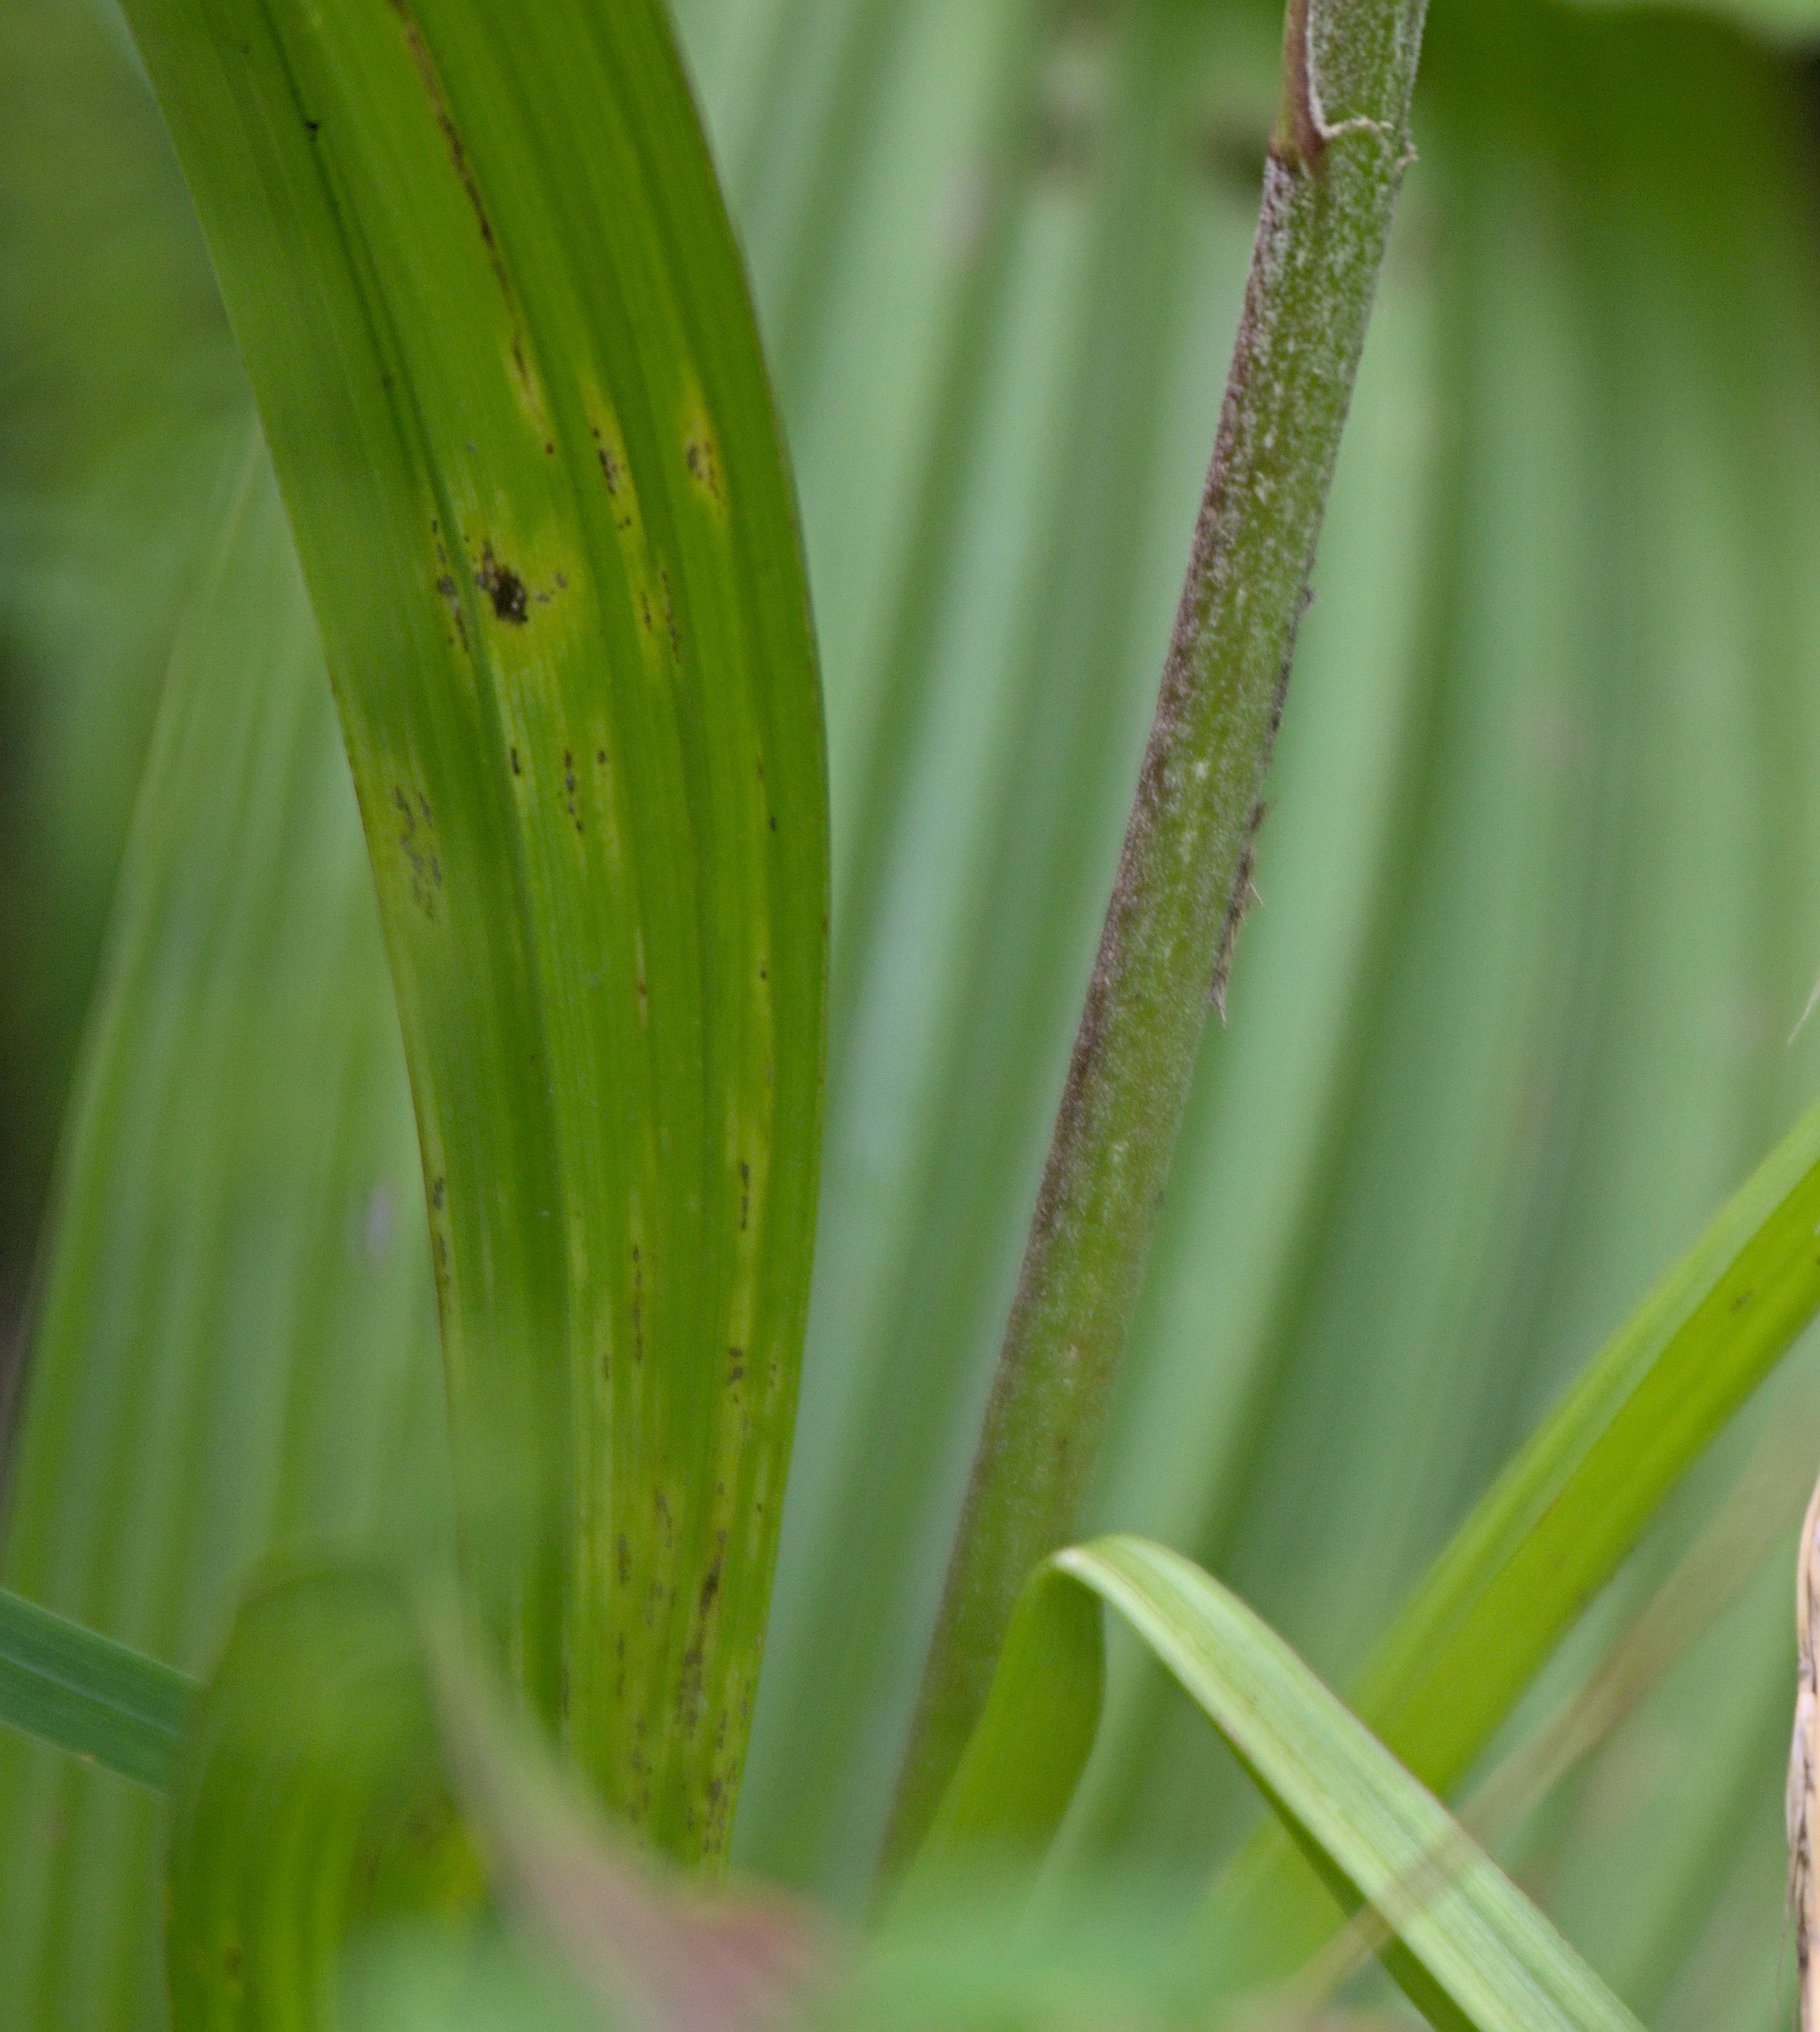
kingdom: Plantae
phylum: Tracheophyta
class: Liliopsida
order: Liliales
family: Melanthiaceae
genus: Veratrum
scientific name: Veratrum nigrum
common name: Black veratrum
